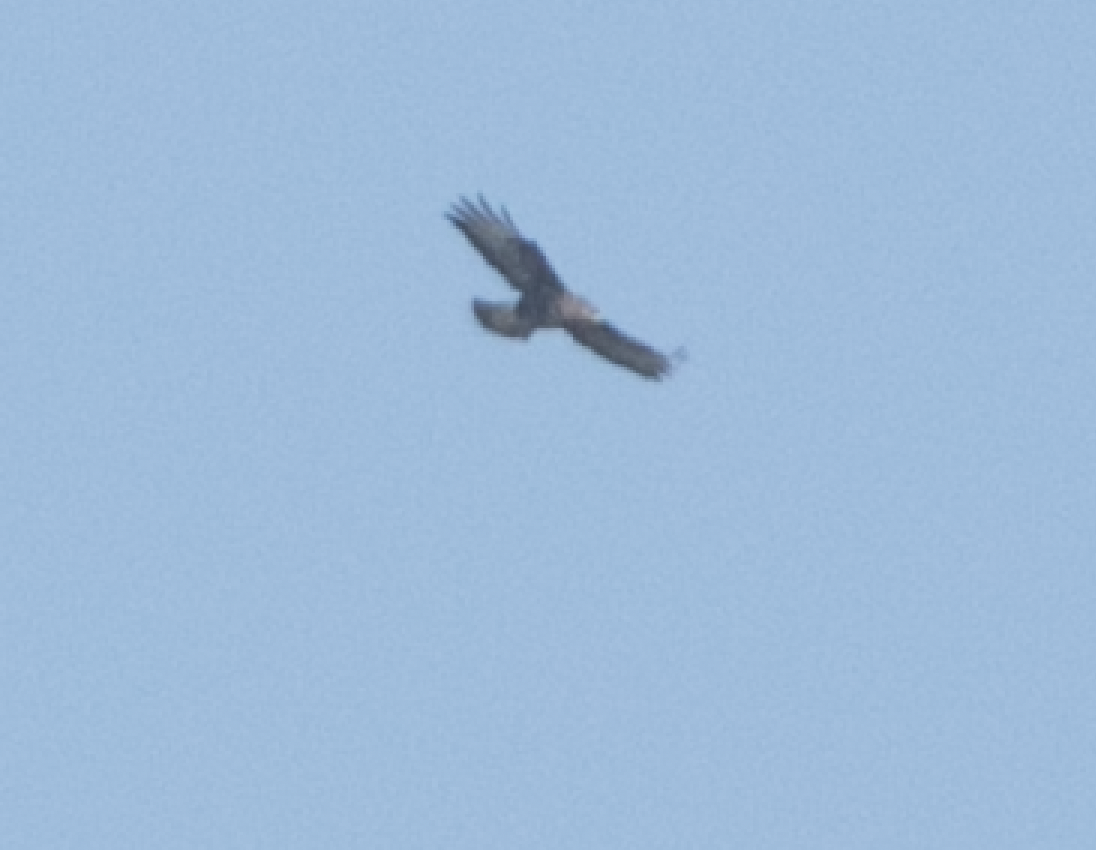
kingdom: Animalia
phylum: Chordata
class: Aves
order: Accipitriformes
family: Accipitridae
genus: Buteo
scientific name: Buteo buteo
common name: Common buzzard
